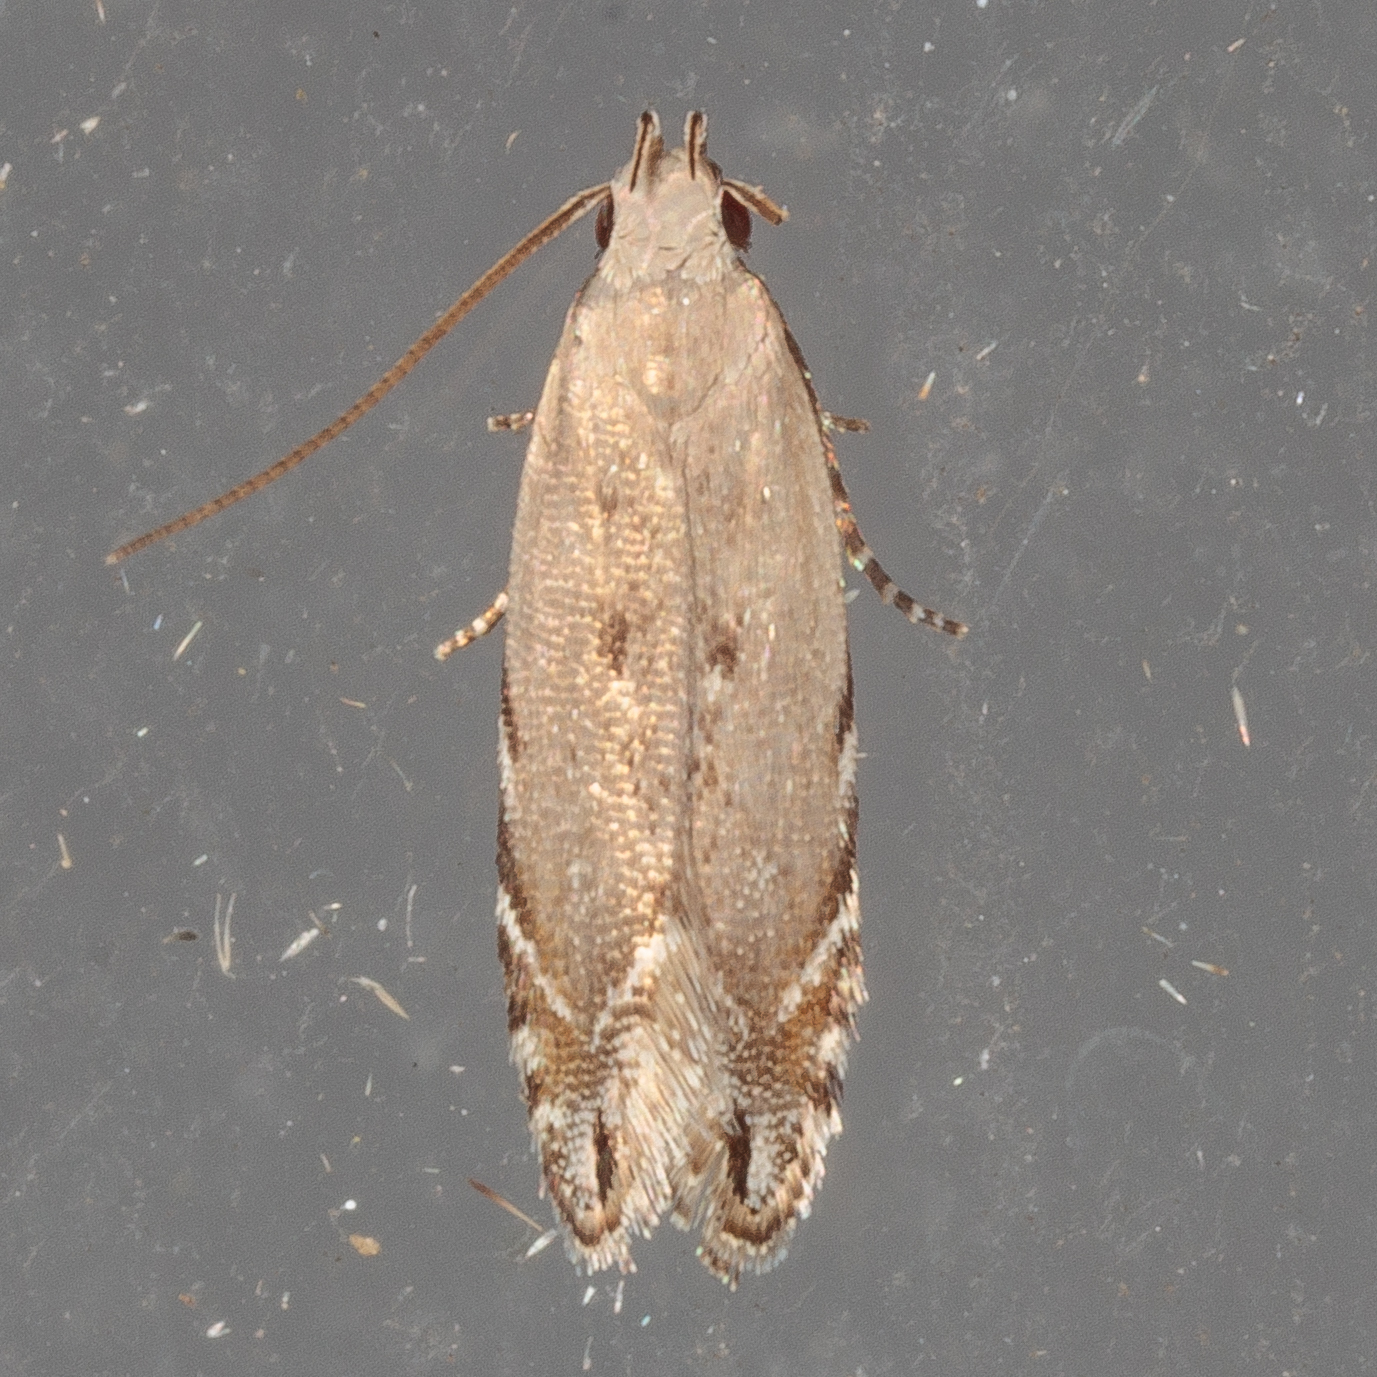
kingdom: Animalia
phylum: Arthropoda
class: Insecta
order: Lepidoptera
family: Gelechiidae
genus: Battaristis
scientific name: Battaristis nigratomella
